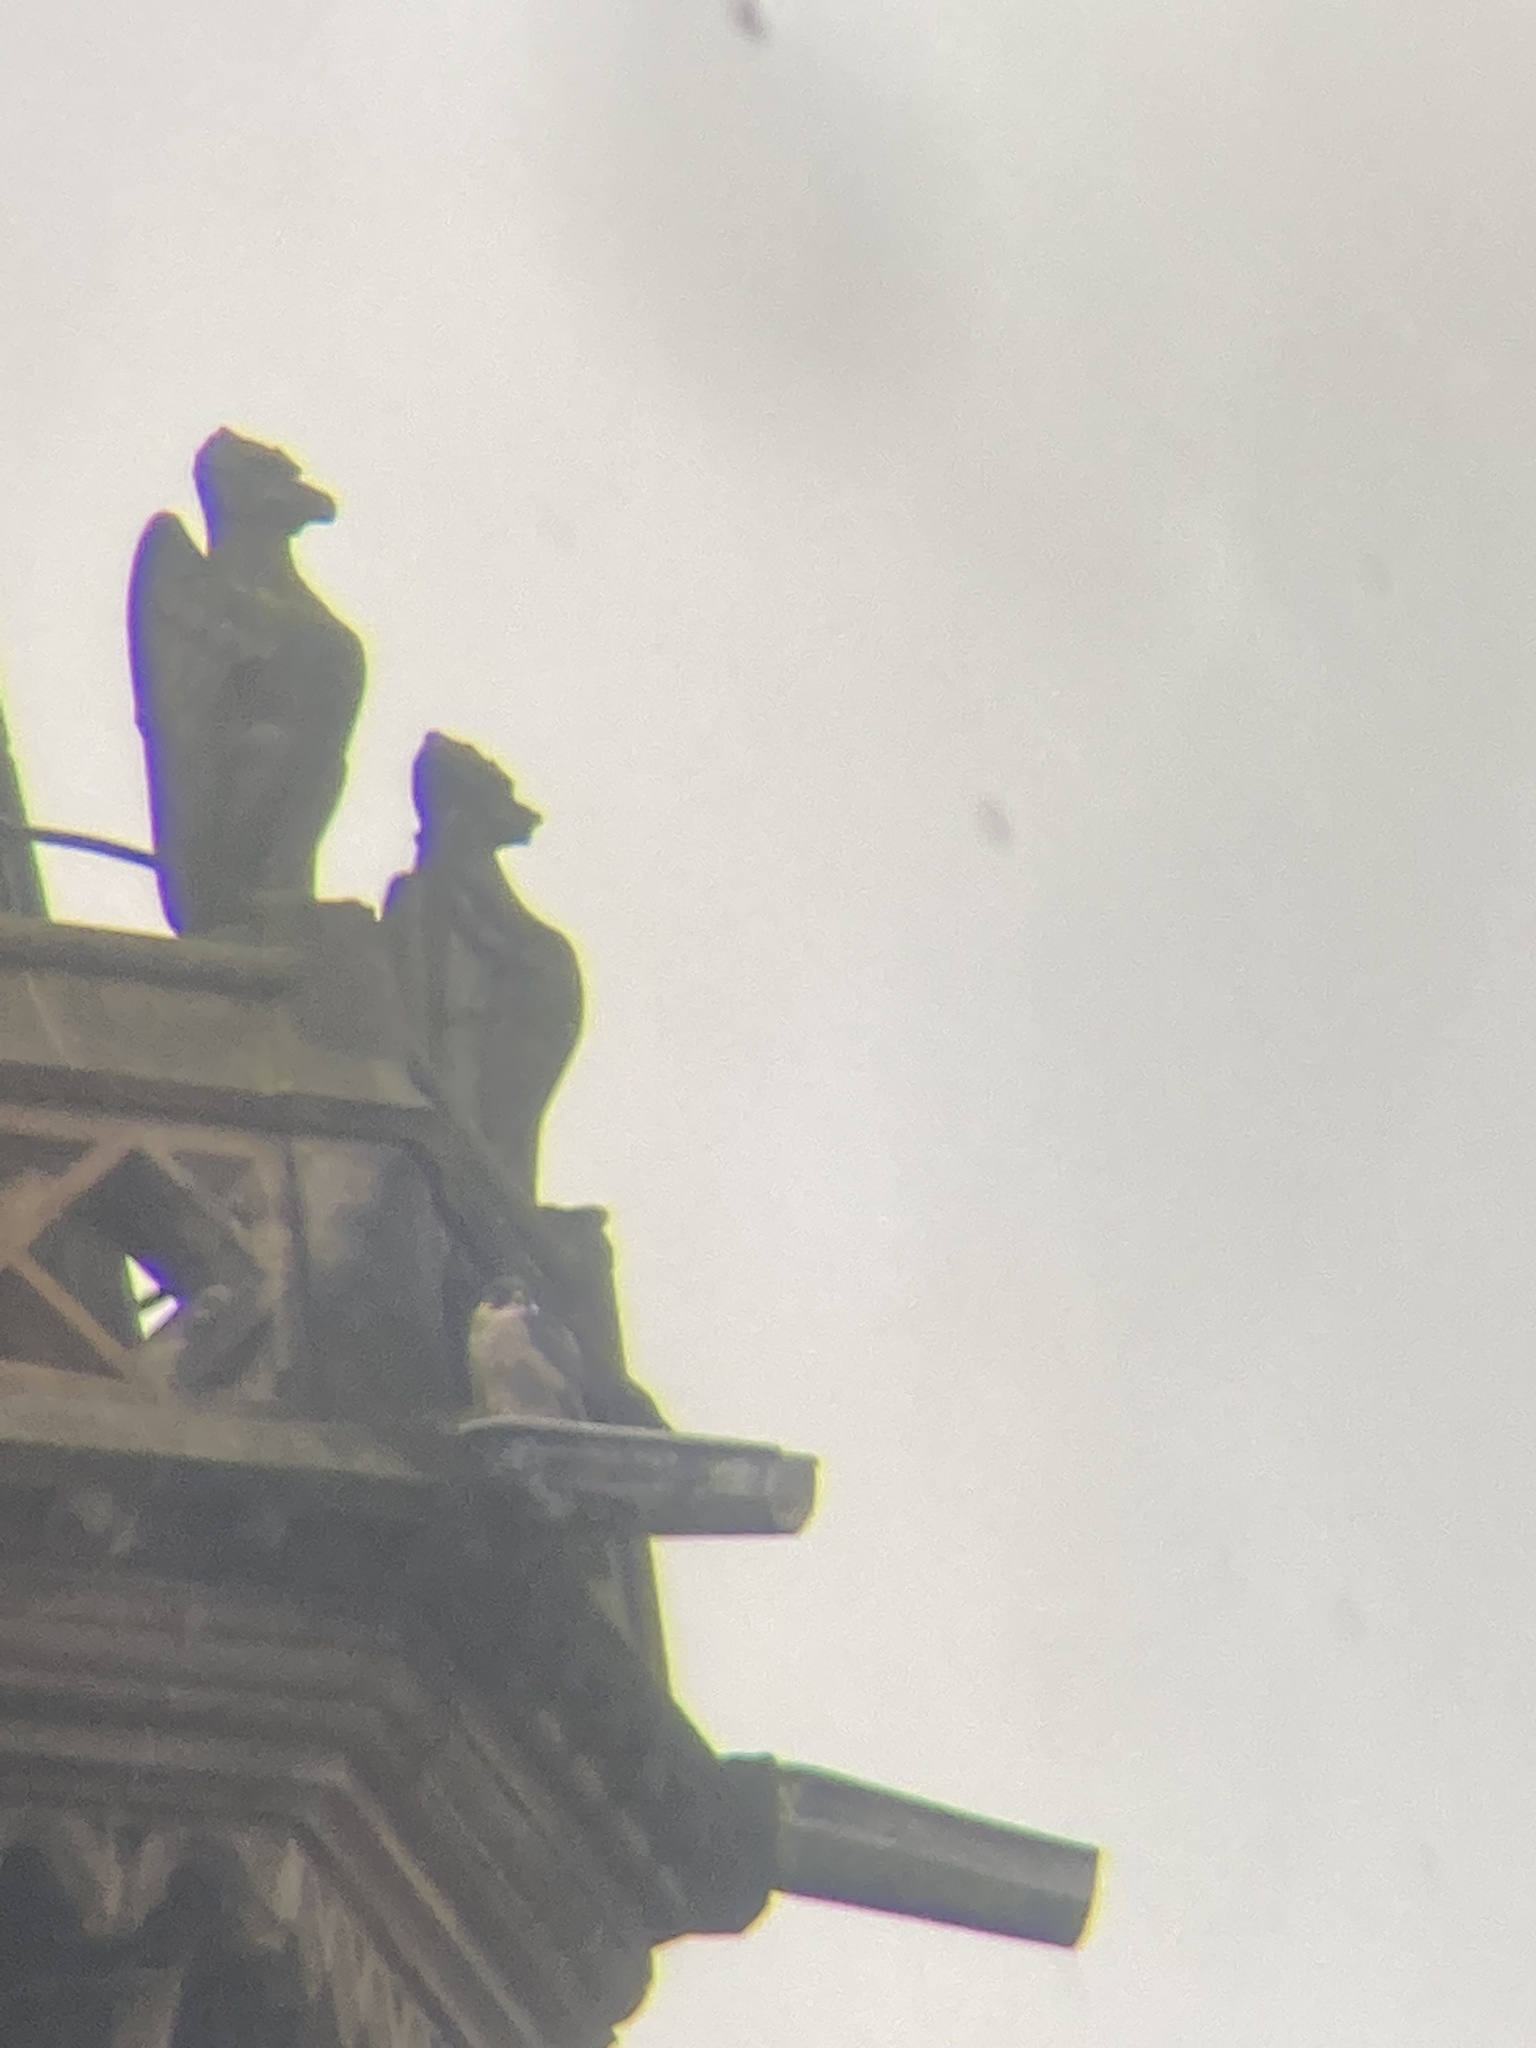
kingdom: Animalia
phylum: Chordata
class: Aves
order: Falconiformes
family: Falconidae
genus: Falco
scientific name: Falco peregrinus
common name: Peregrine falcon
